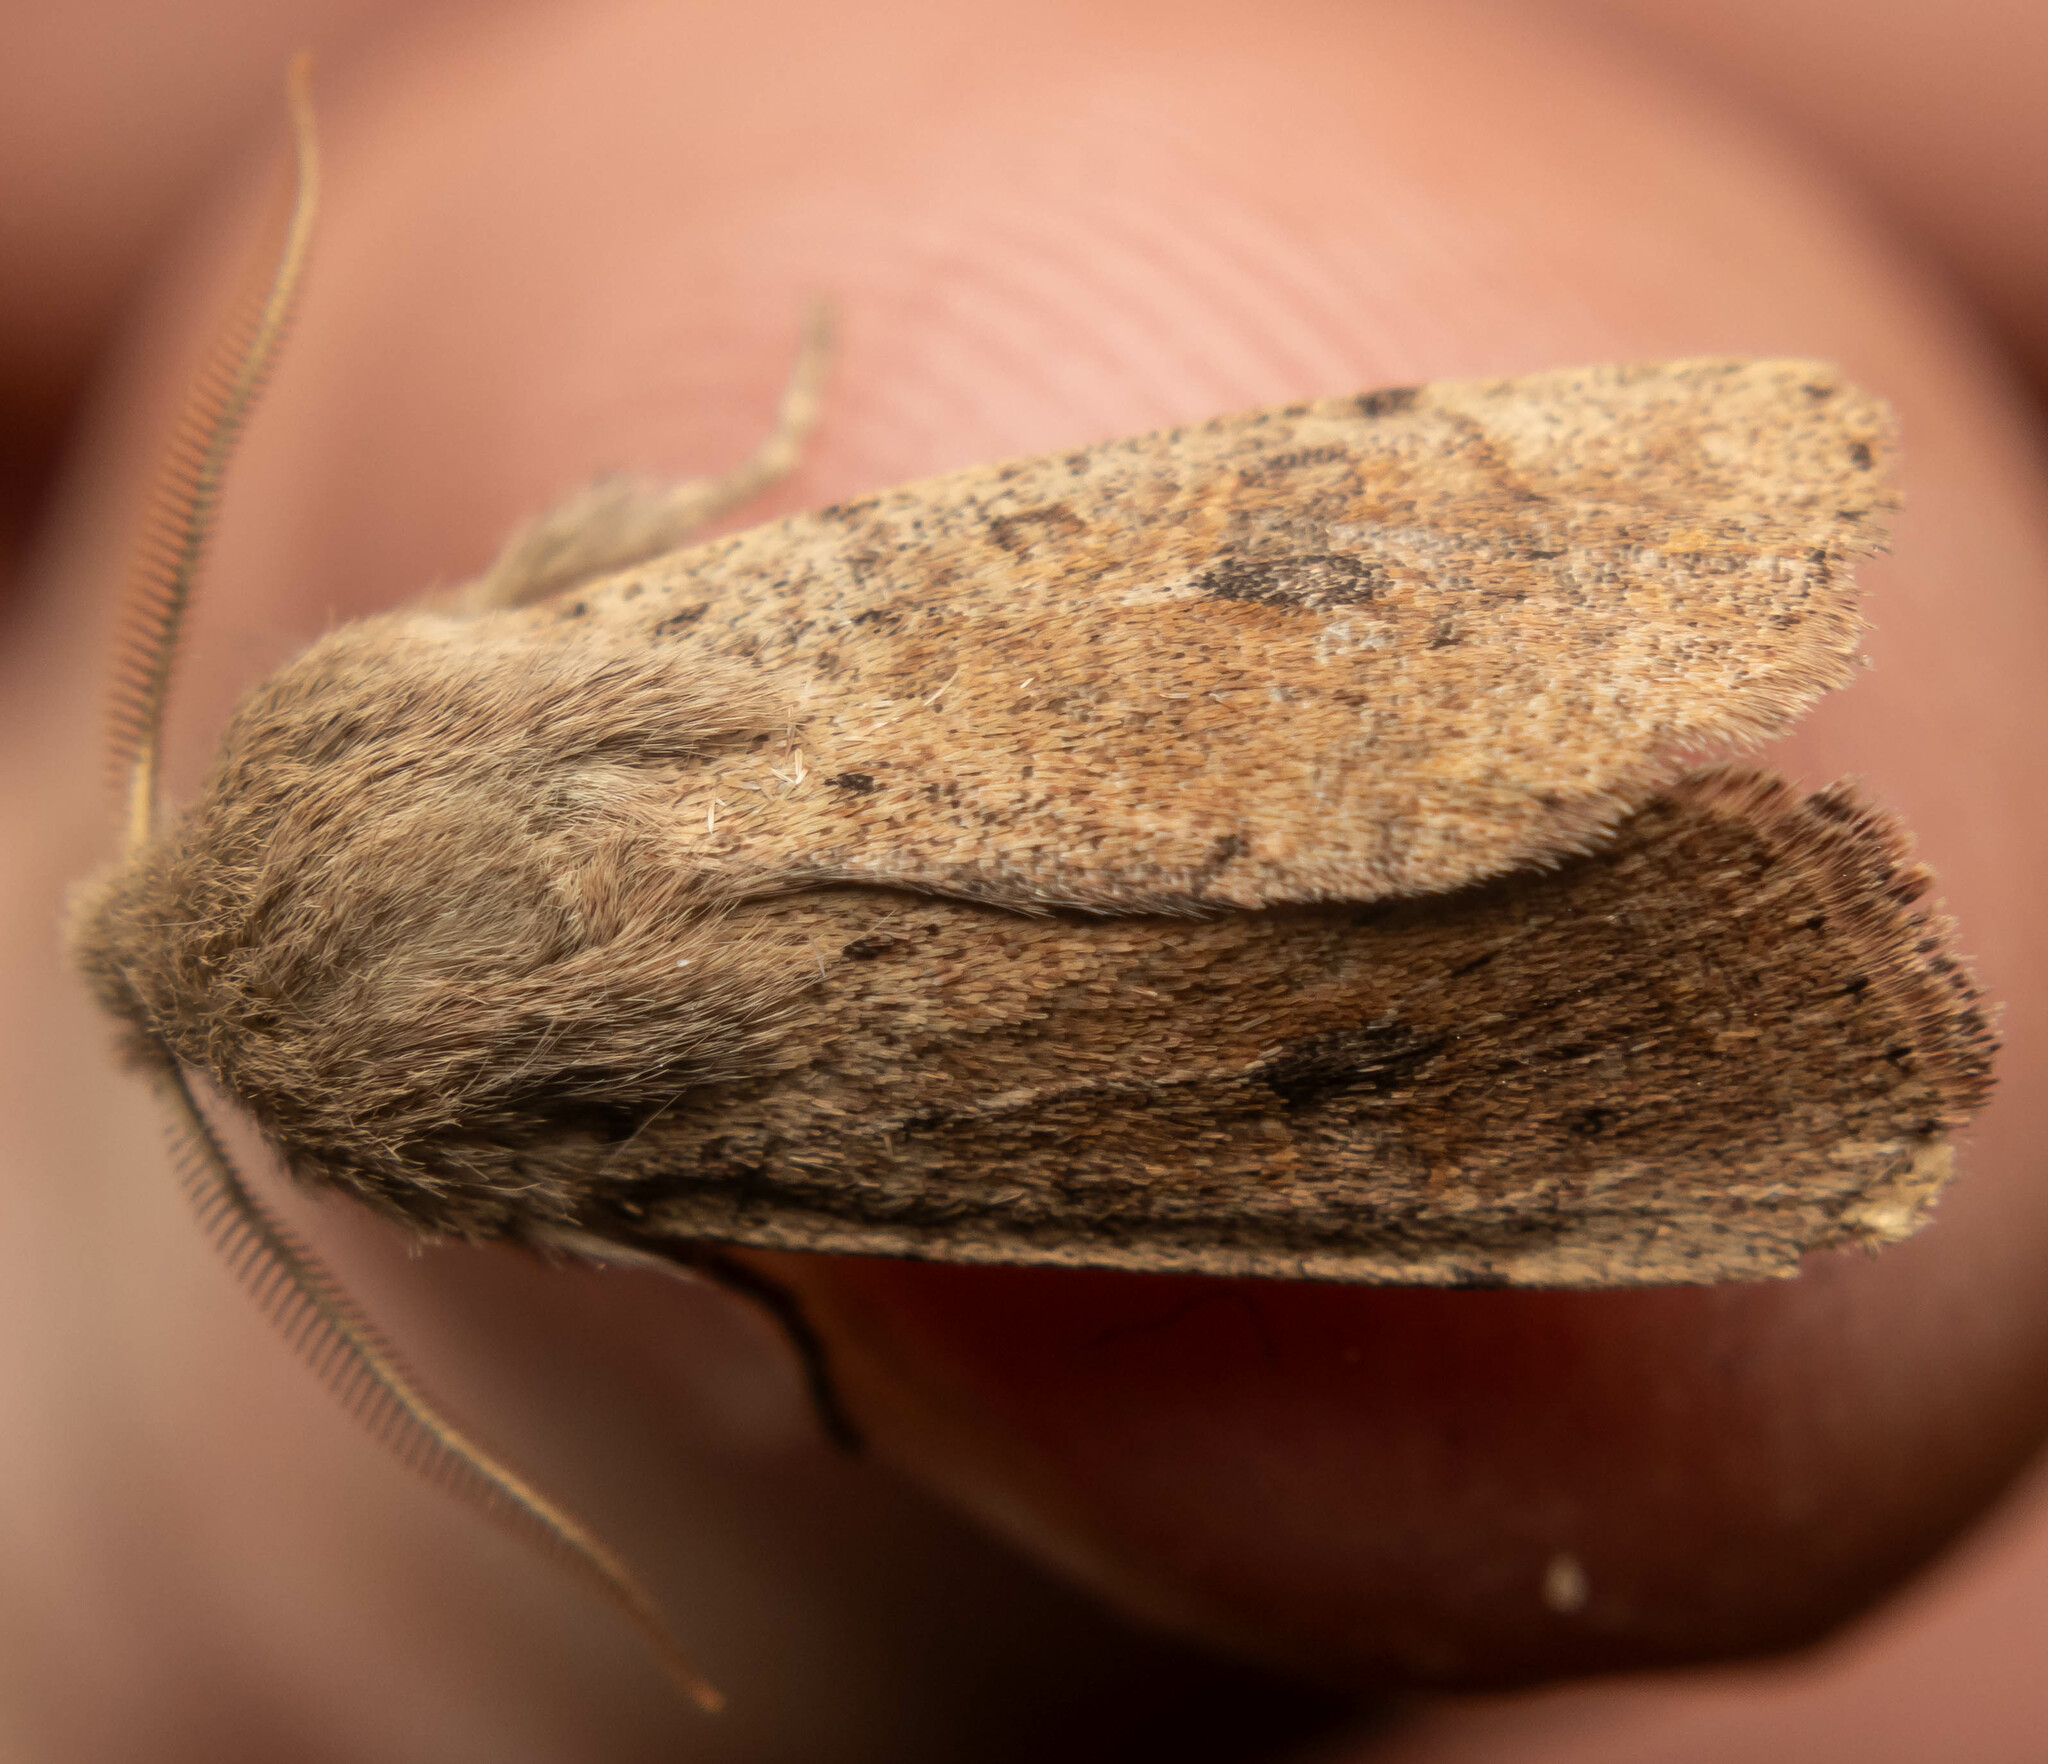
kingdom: Animalia
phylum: Arthropoda
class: Insecta
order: Lepidoptera
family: Noctuidae
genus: Orthosia
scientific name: Orthosia cruda
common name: Small quaker
